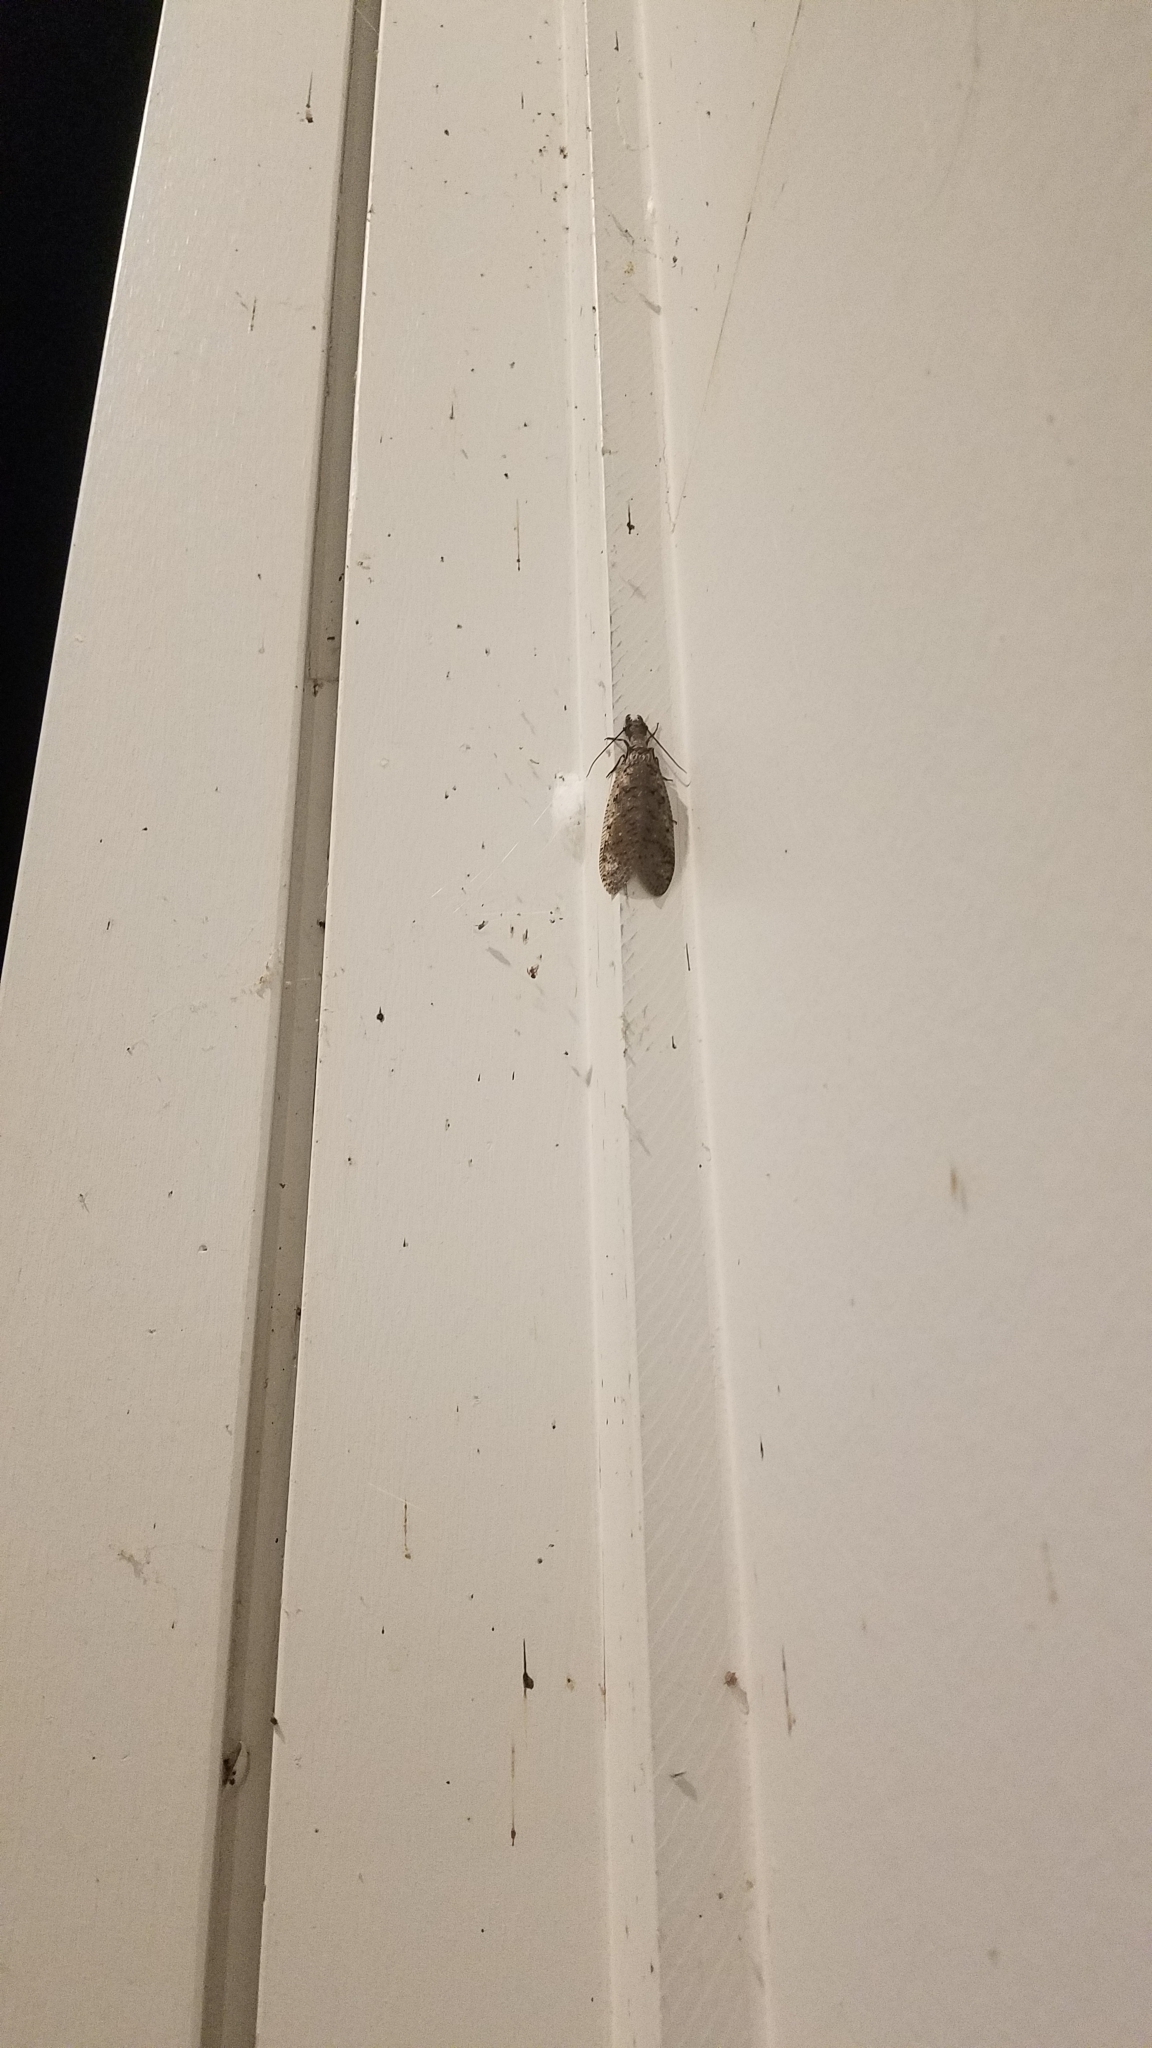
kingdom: Animalia
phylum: Arthropoda
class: Insecta
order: Megaloptera
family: Corydalidae
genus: Corydalus
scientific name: Corydalus cornutus
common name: Dobsonfly
